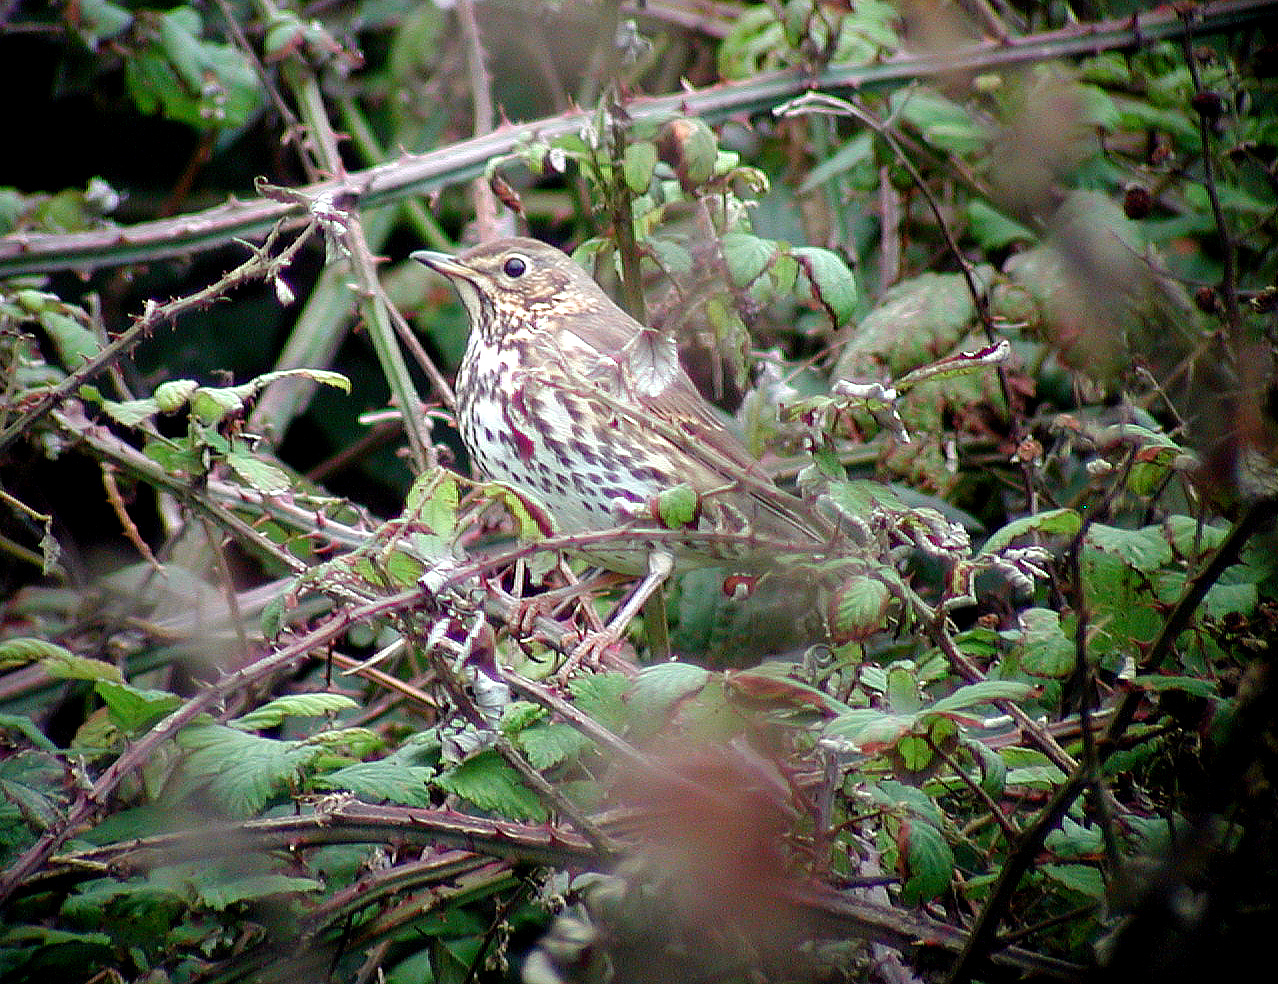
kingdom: Animalia
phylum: Chordata
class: Aves
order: Passeriformes
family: Turdidae
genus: Turdus
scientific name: Turdus philomelos
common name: Song thrush
